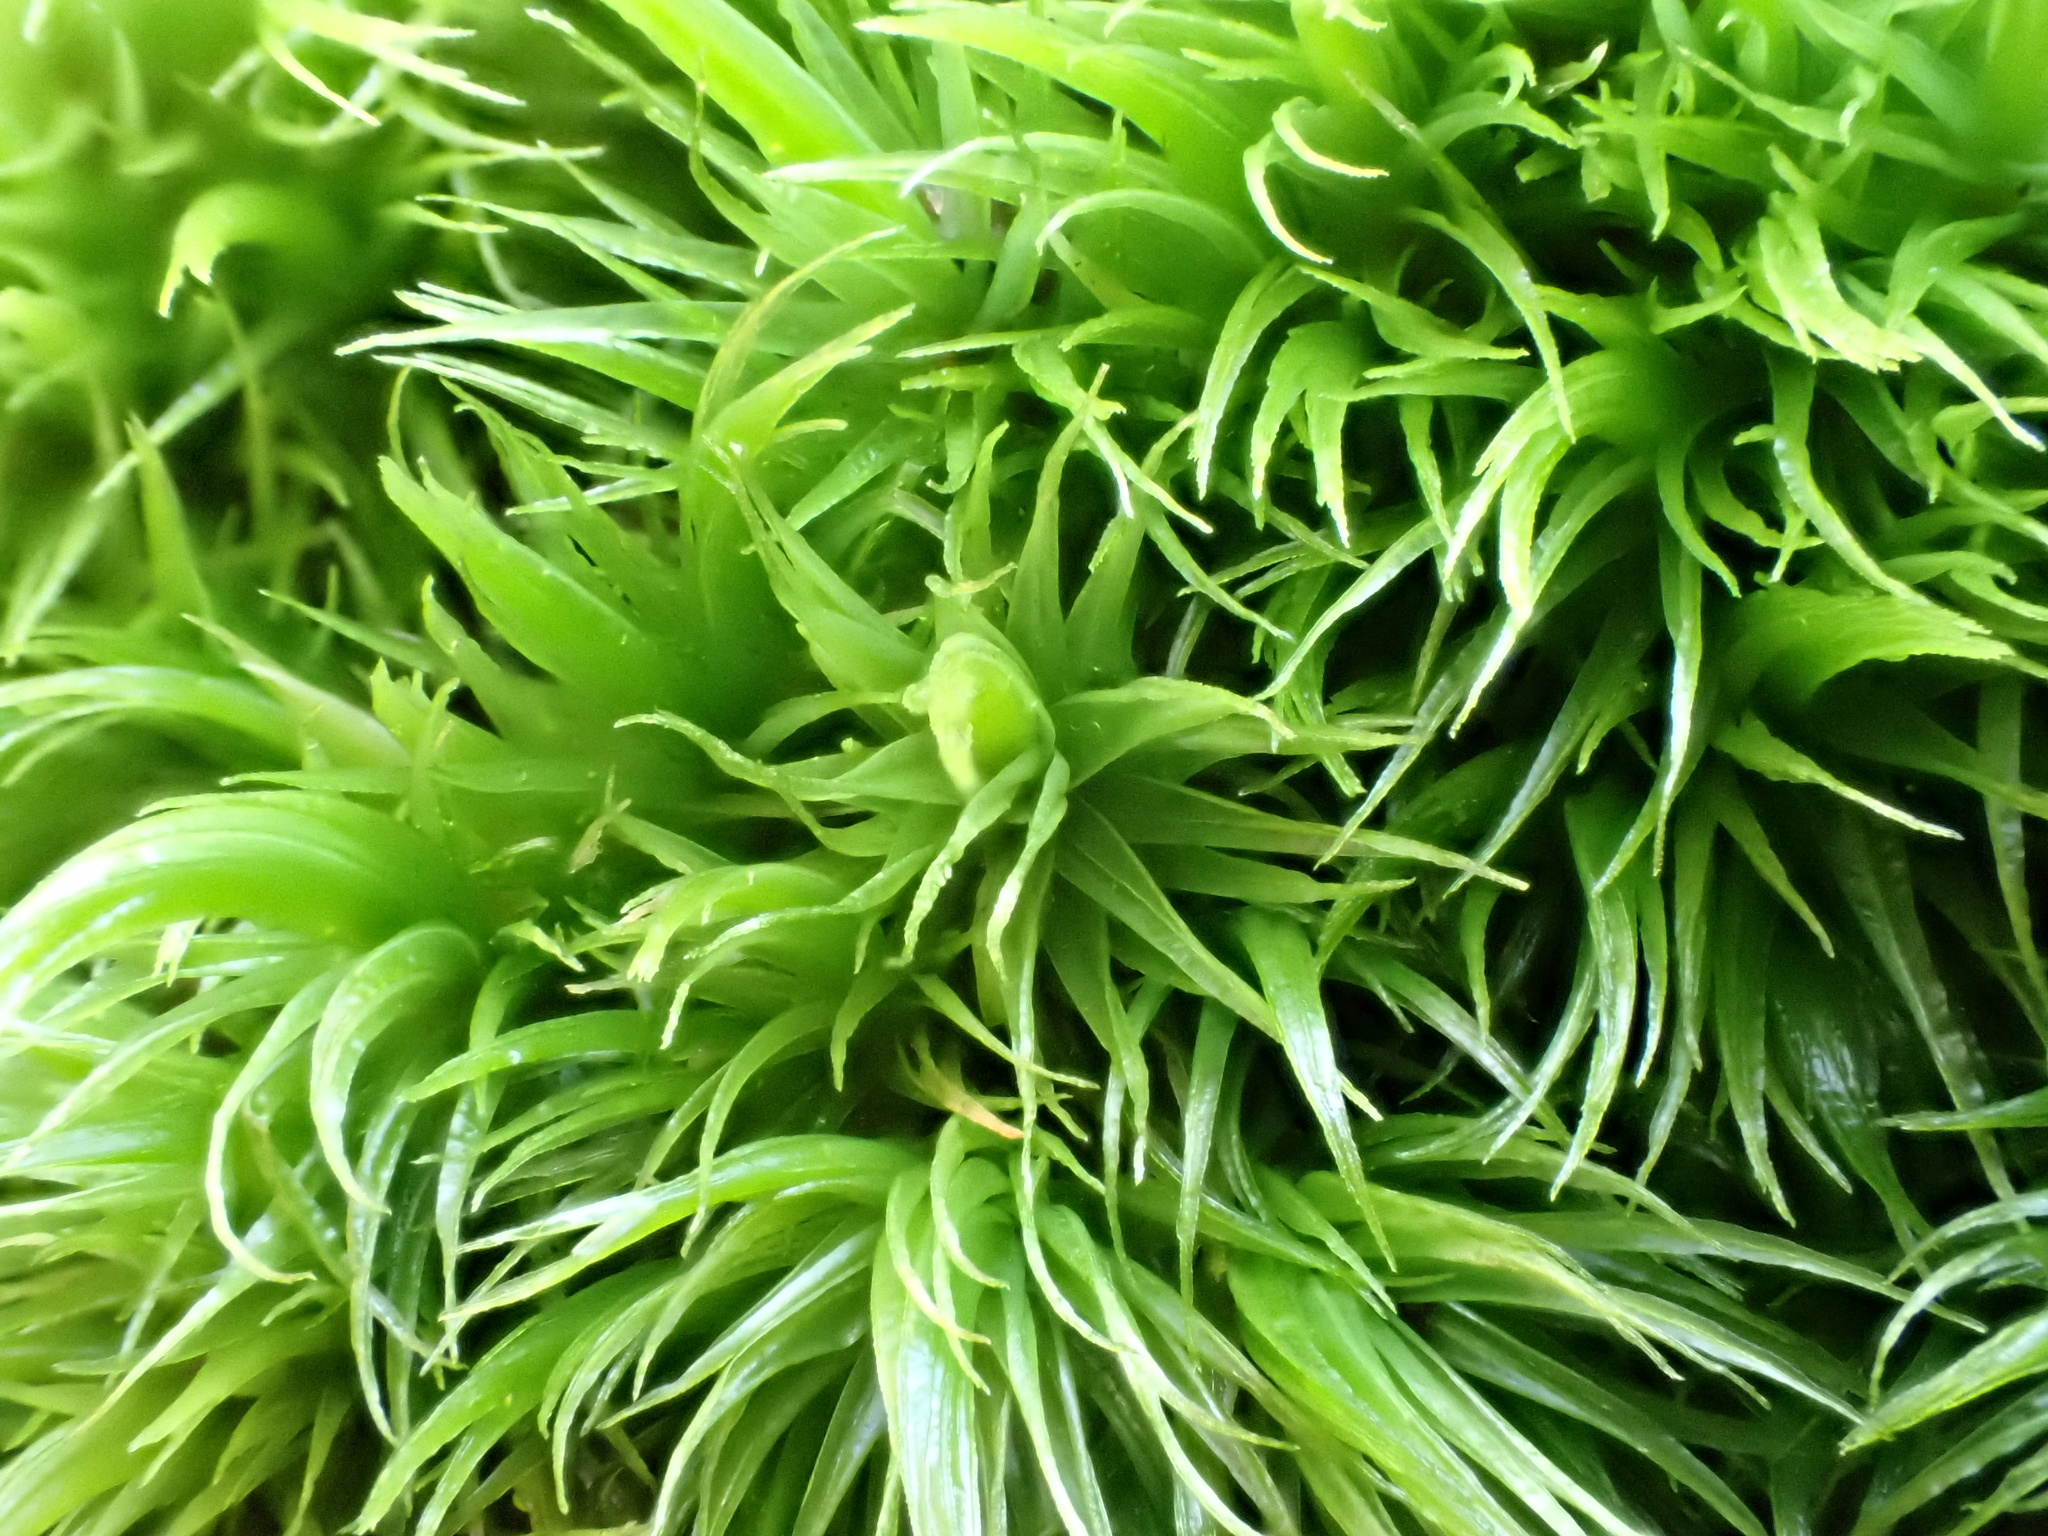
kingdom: Plantae
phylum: Bryophyta
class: Bryopsida
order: Dicranales
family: Dicranaceae
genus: Dicranum
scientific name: Dicranum scoparium
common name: Broom fork-moss
